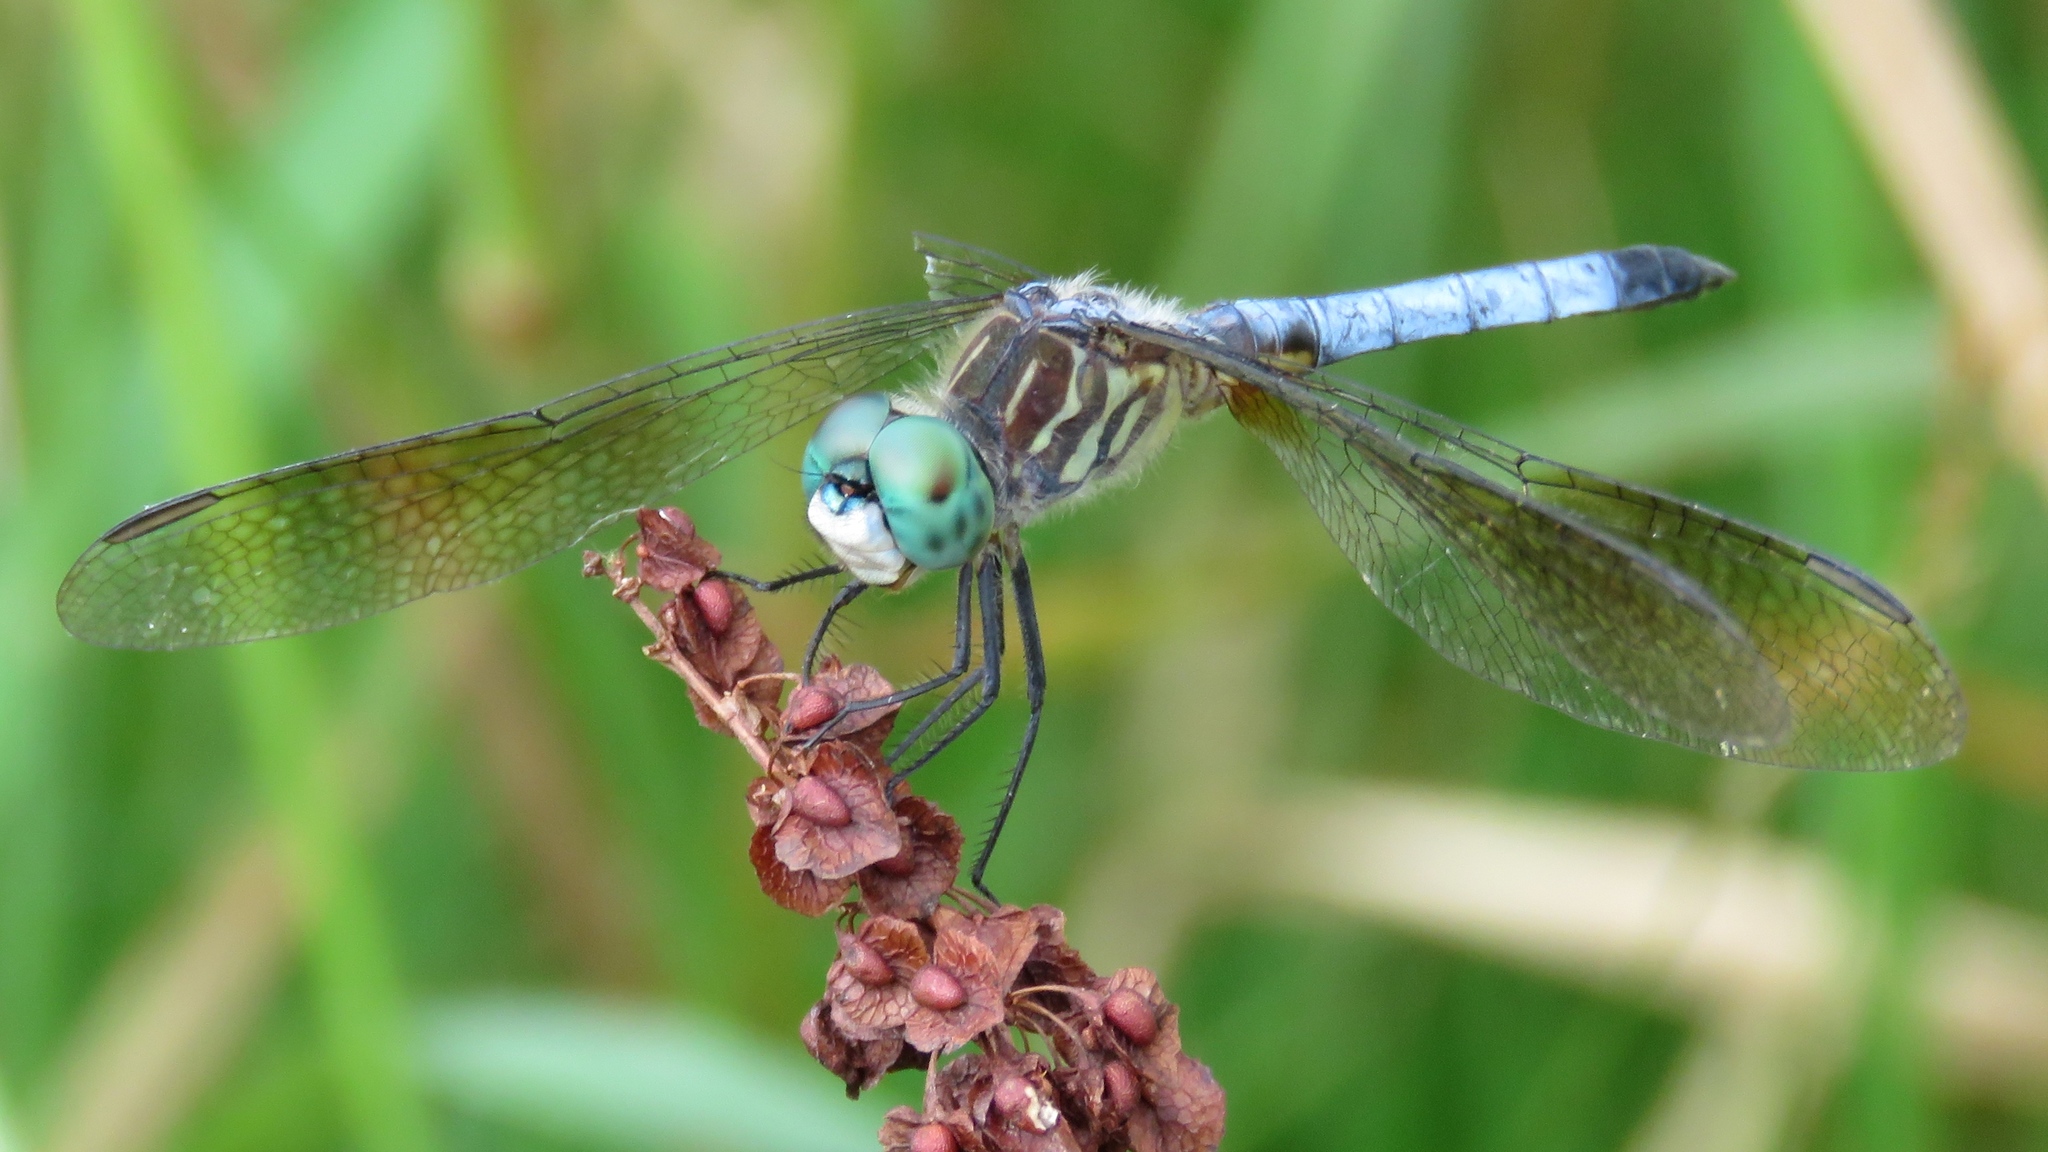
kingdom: Animalia
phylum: Arthropoda
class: Insecta
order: Odonata
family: Libellulidae
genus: Pachydiplax
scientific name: Pachydiplax longipennis
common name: Blue dasher
